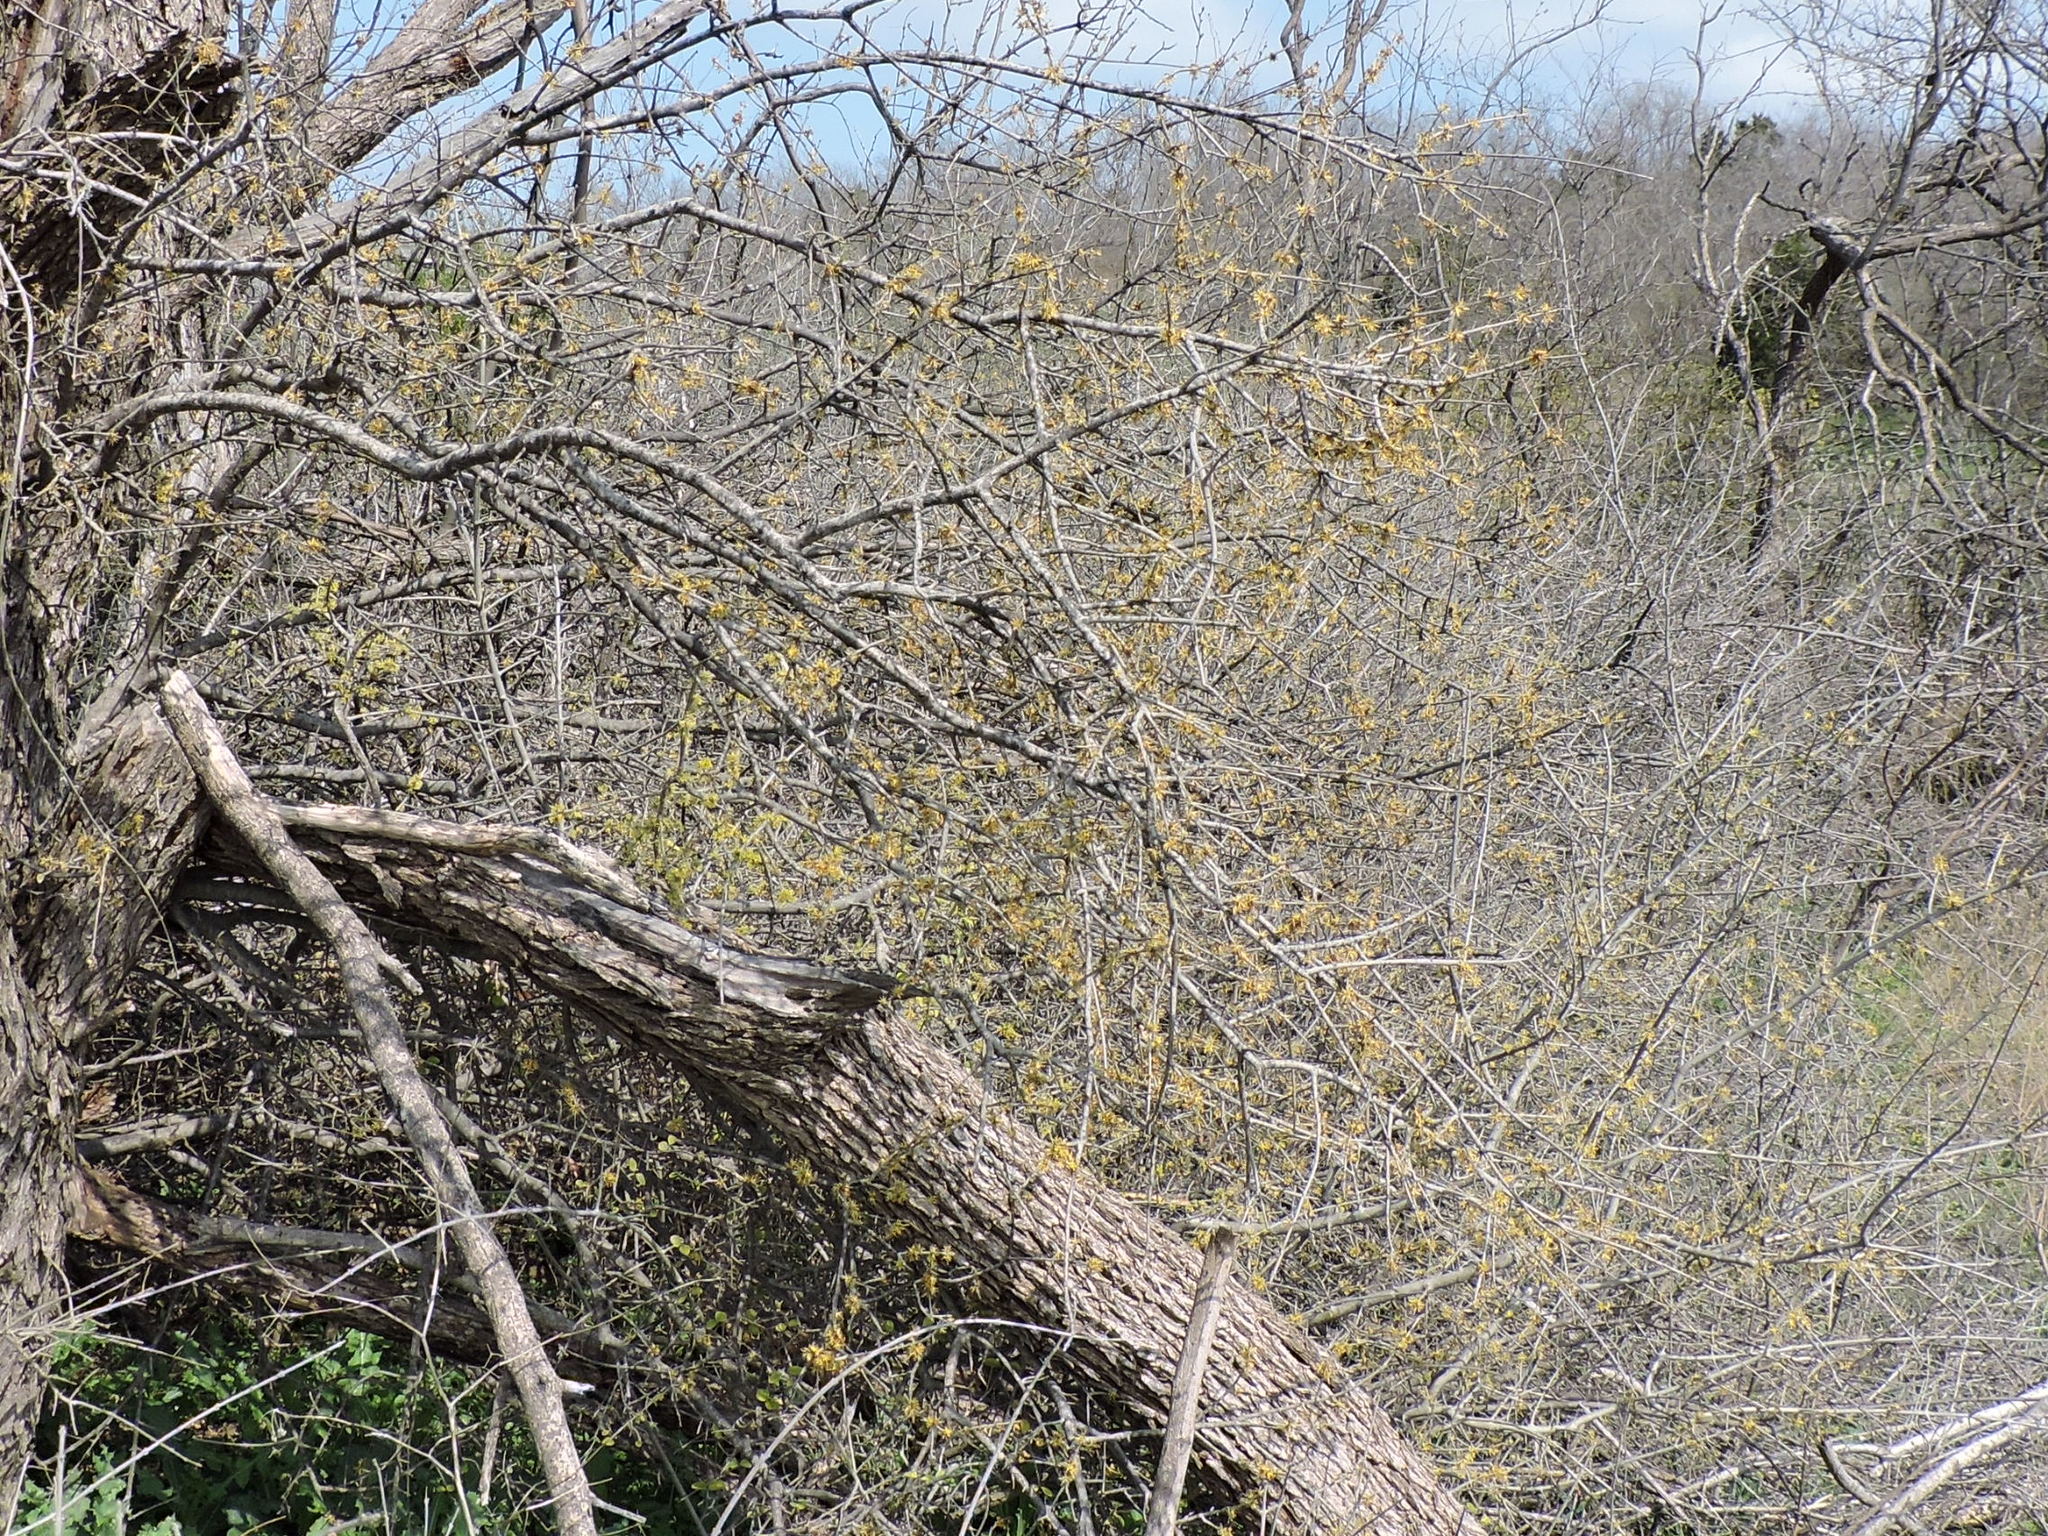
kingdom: Plantae
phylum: Tracheophyta
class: Magnoliopsida
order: Lamiales
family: Oleaceae
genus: Forestiera
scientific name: Forestiera pubescens
